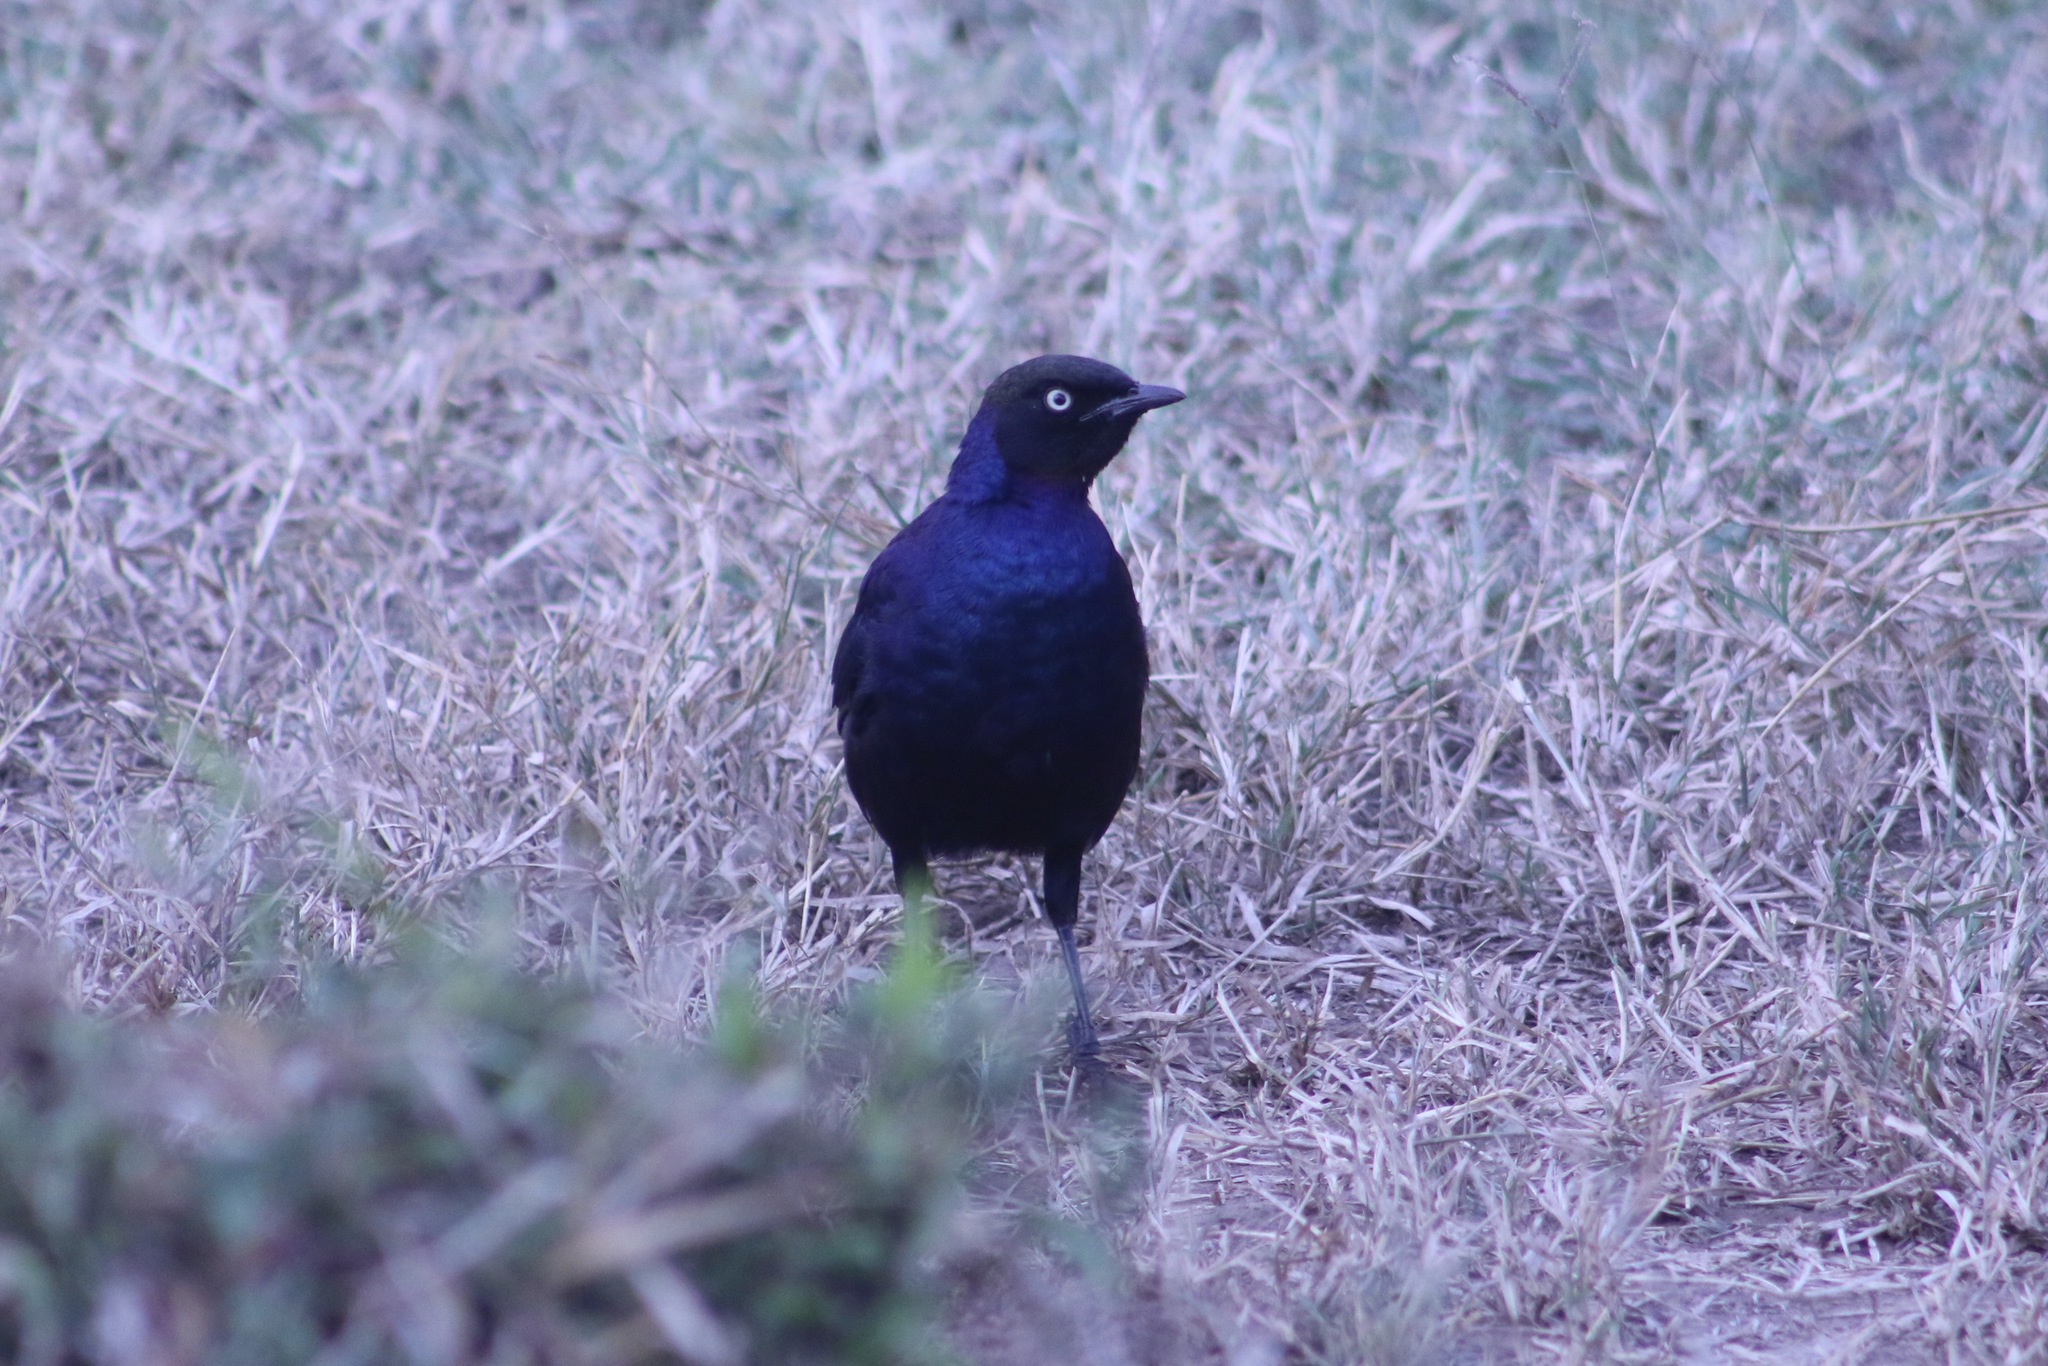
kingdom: Animalia
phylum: Chordata
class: Aves
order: Passeriformes
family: Sturnidae
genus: Lamprotornis
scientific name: Lamprotornis purpuroptera
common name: Rüppell's starling
